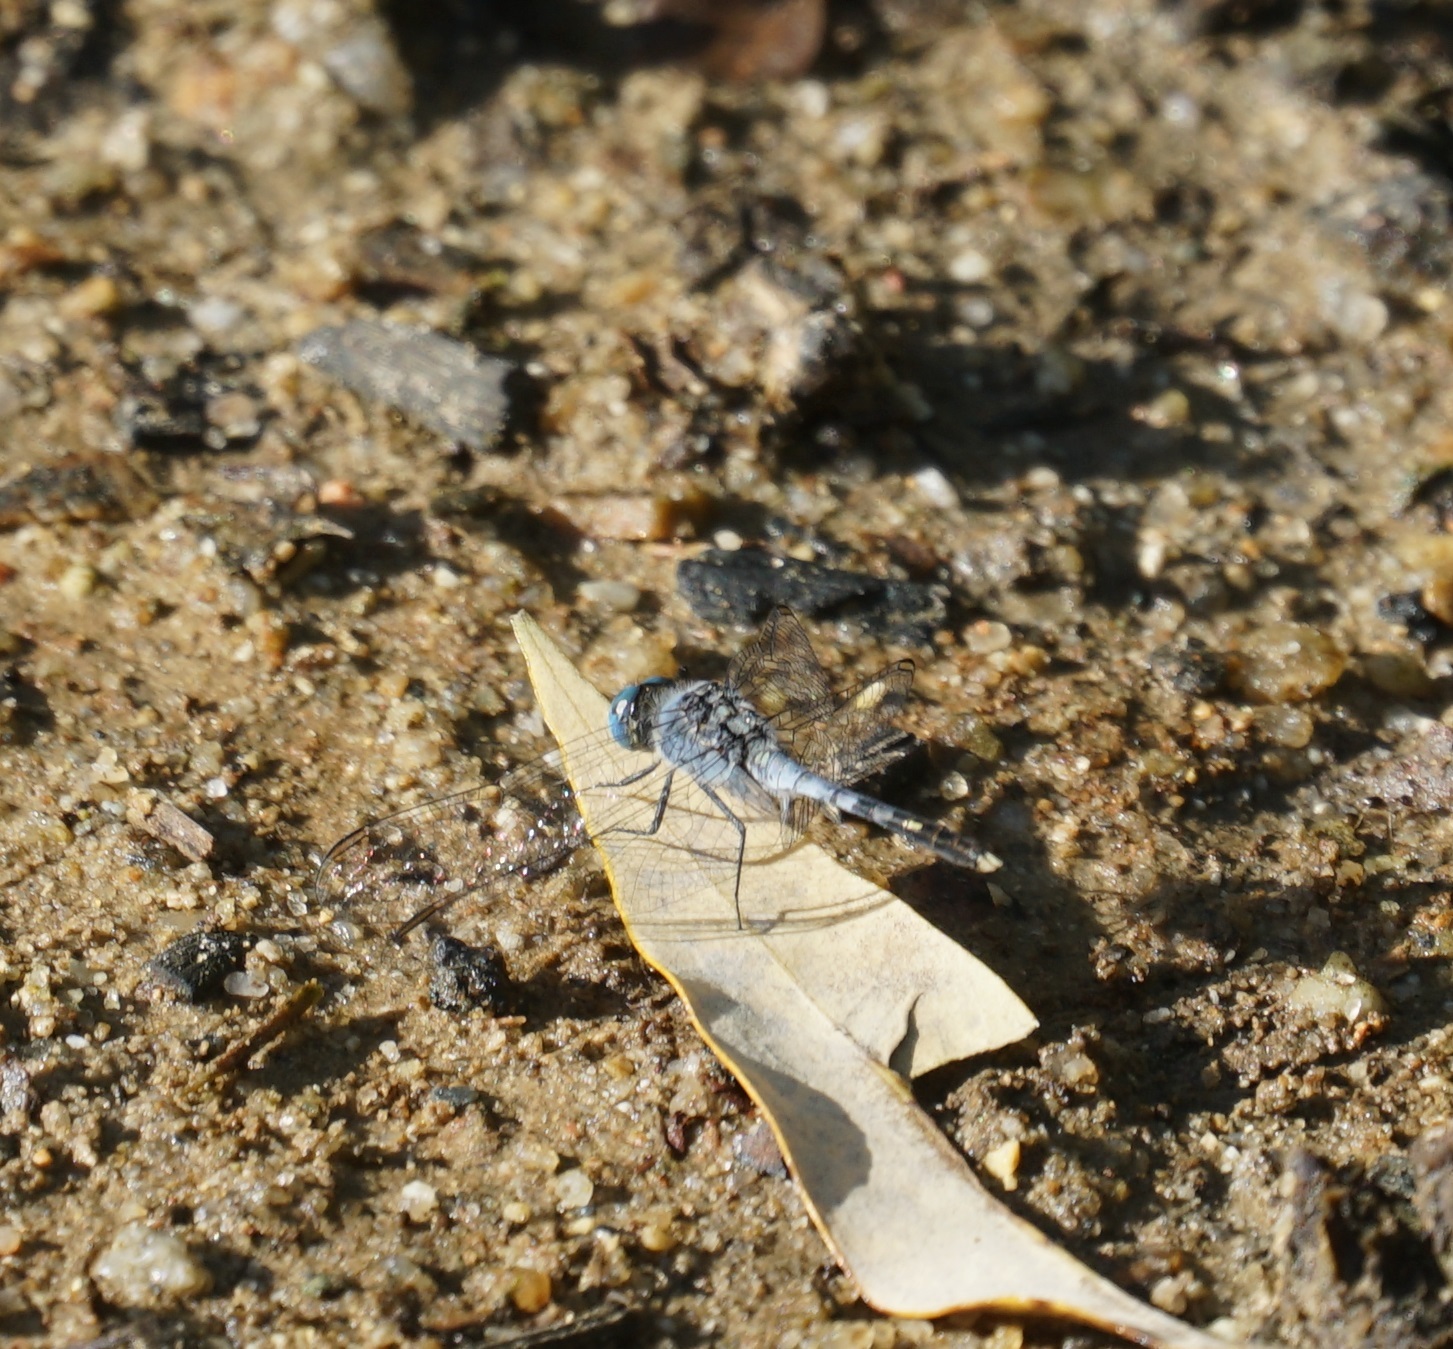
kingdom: Animalia
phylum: Arthropoda
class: Insecta
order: Odonata
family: Libellulidae
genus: Diplacodes
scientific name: Diplacodes trivialis
